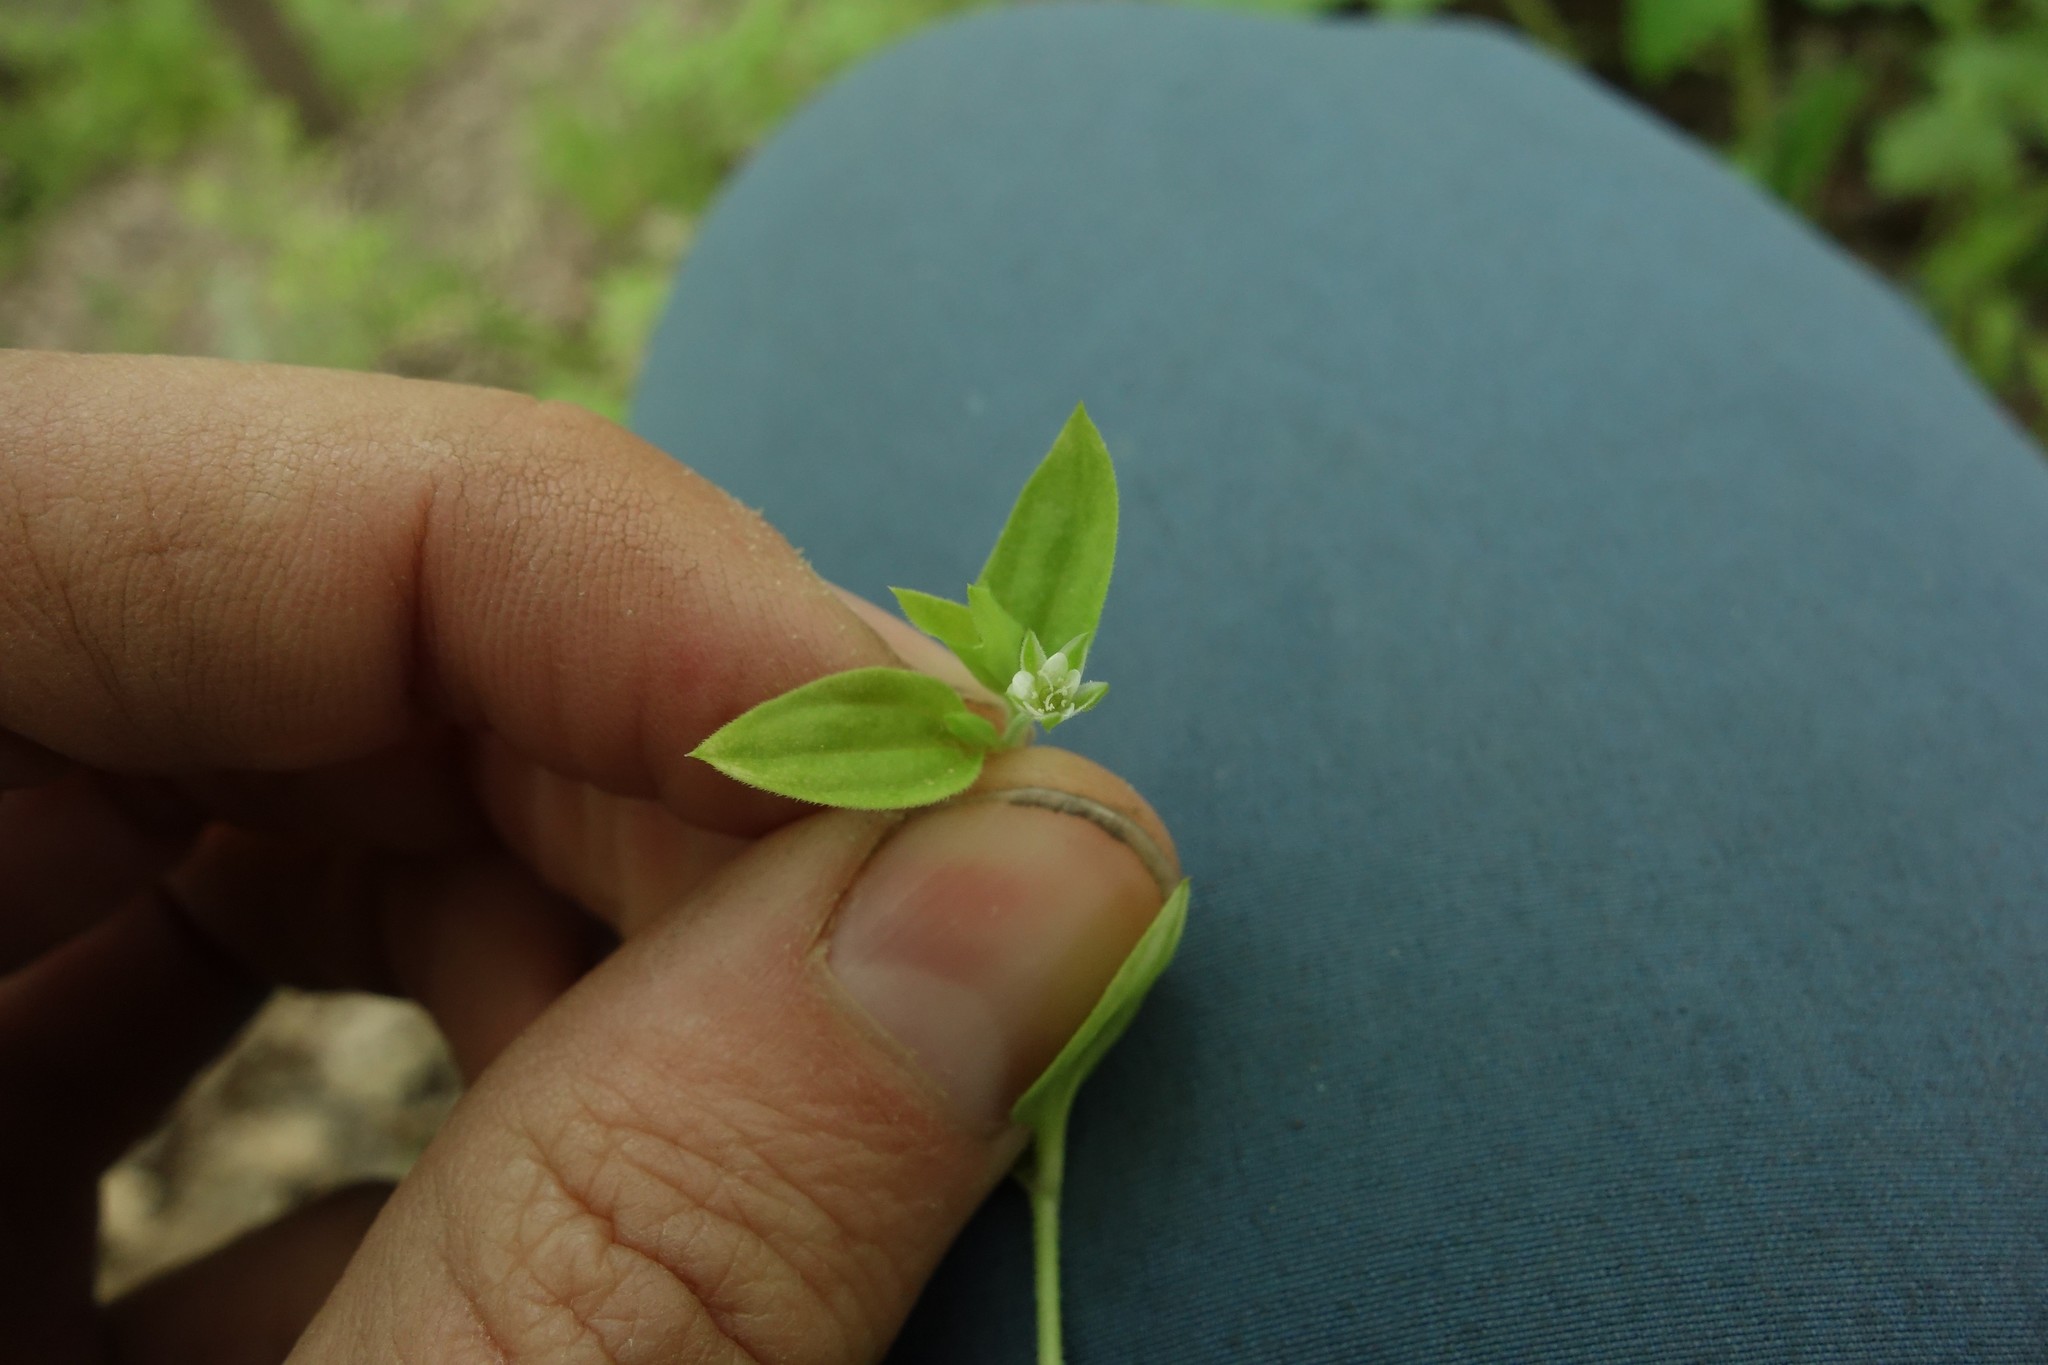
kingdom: Plantae
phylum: Tracheophyta
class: Magnoliopsida
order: Caryophyllales
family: Caryophyllaceae
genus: Moehringia
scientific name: Moehringia trinervia
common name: Three-nerved sandwort
